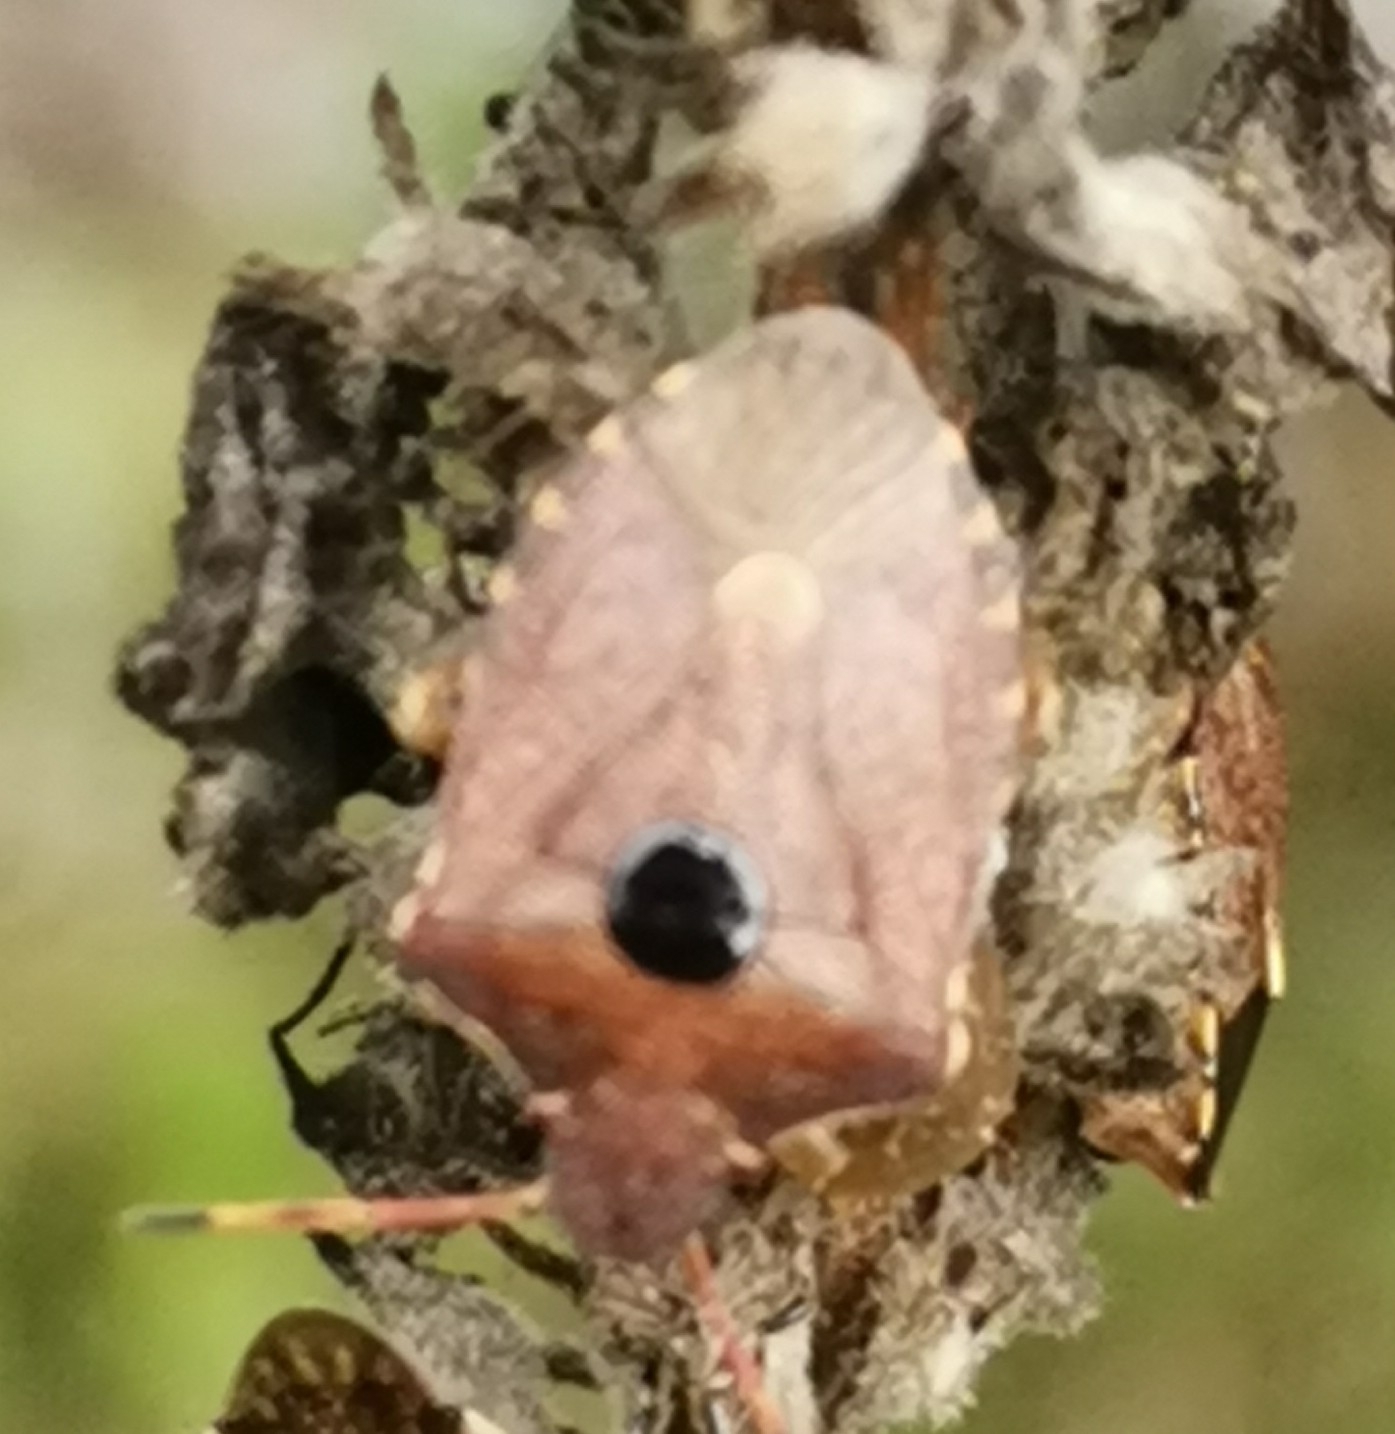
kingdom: Animalia
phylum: Arthropoda
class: Insecta
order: Hemiptera
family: Pentatomidae
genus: Holcostethus
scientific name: Holcostethus strictus
